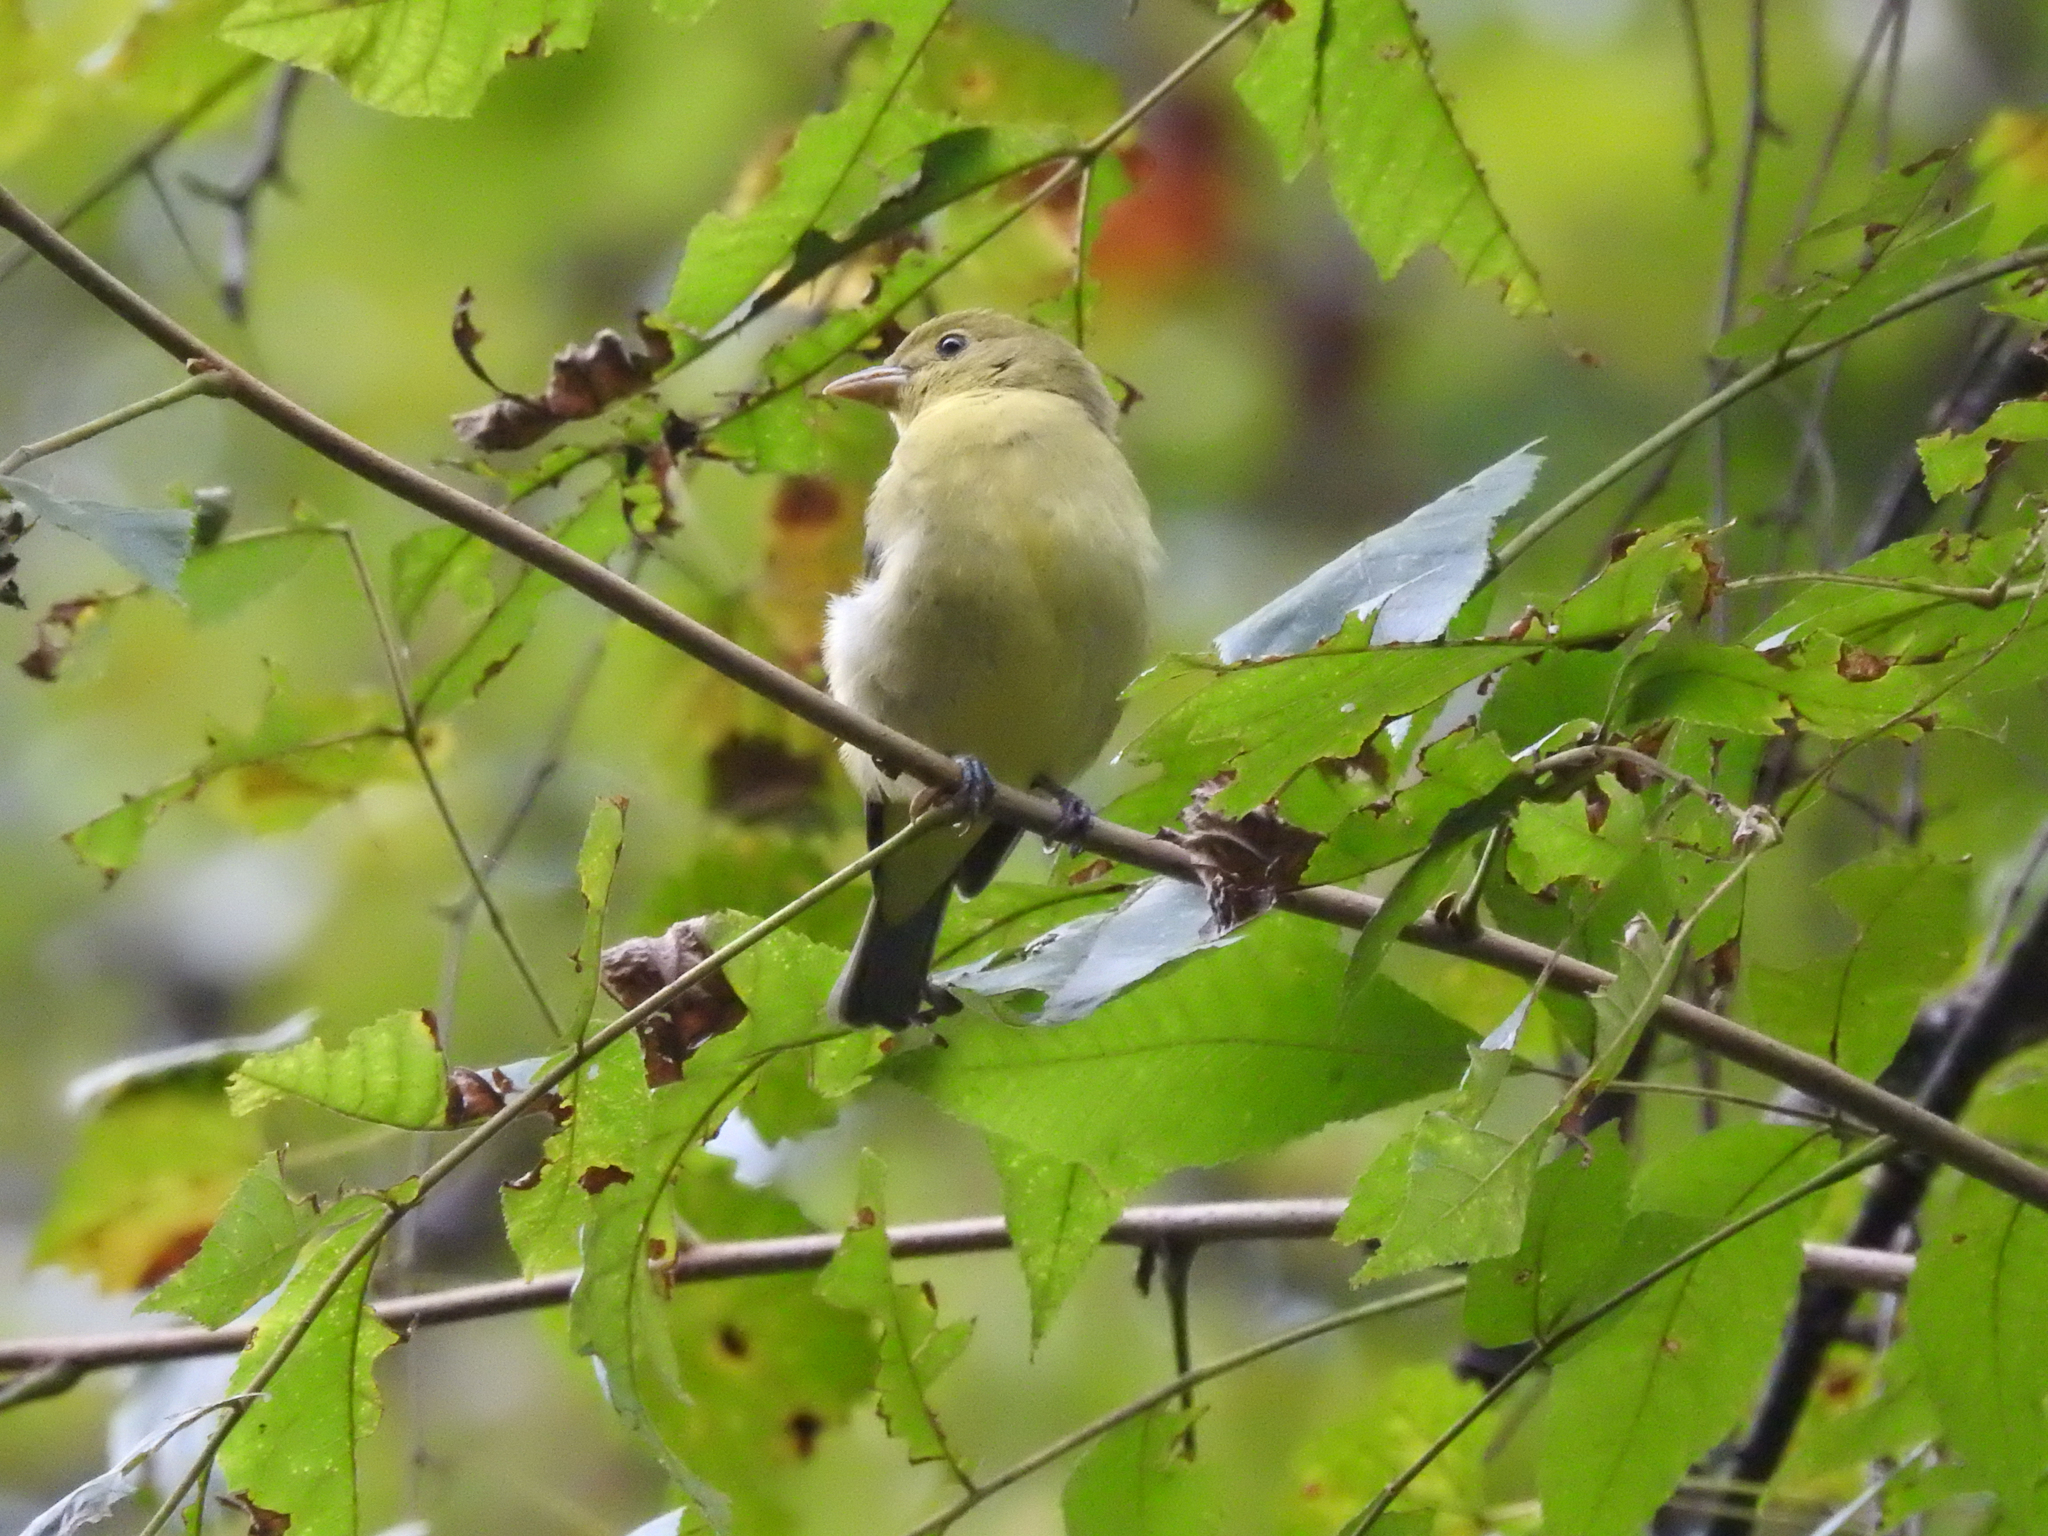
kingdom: Animalia
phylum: Chordata
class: Aves
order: Passeriformes
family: Cardinalidae
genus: Piranga
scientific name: Piranga olivacea
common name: Scarlet tanager
